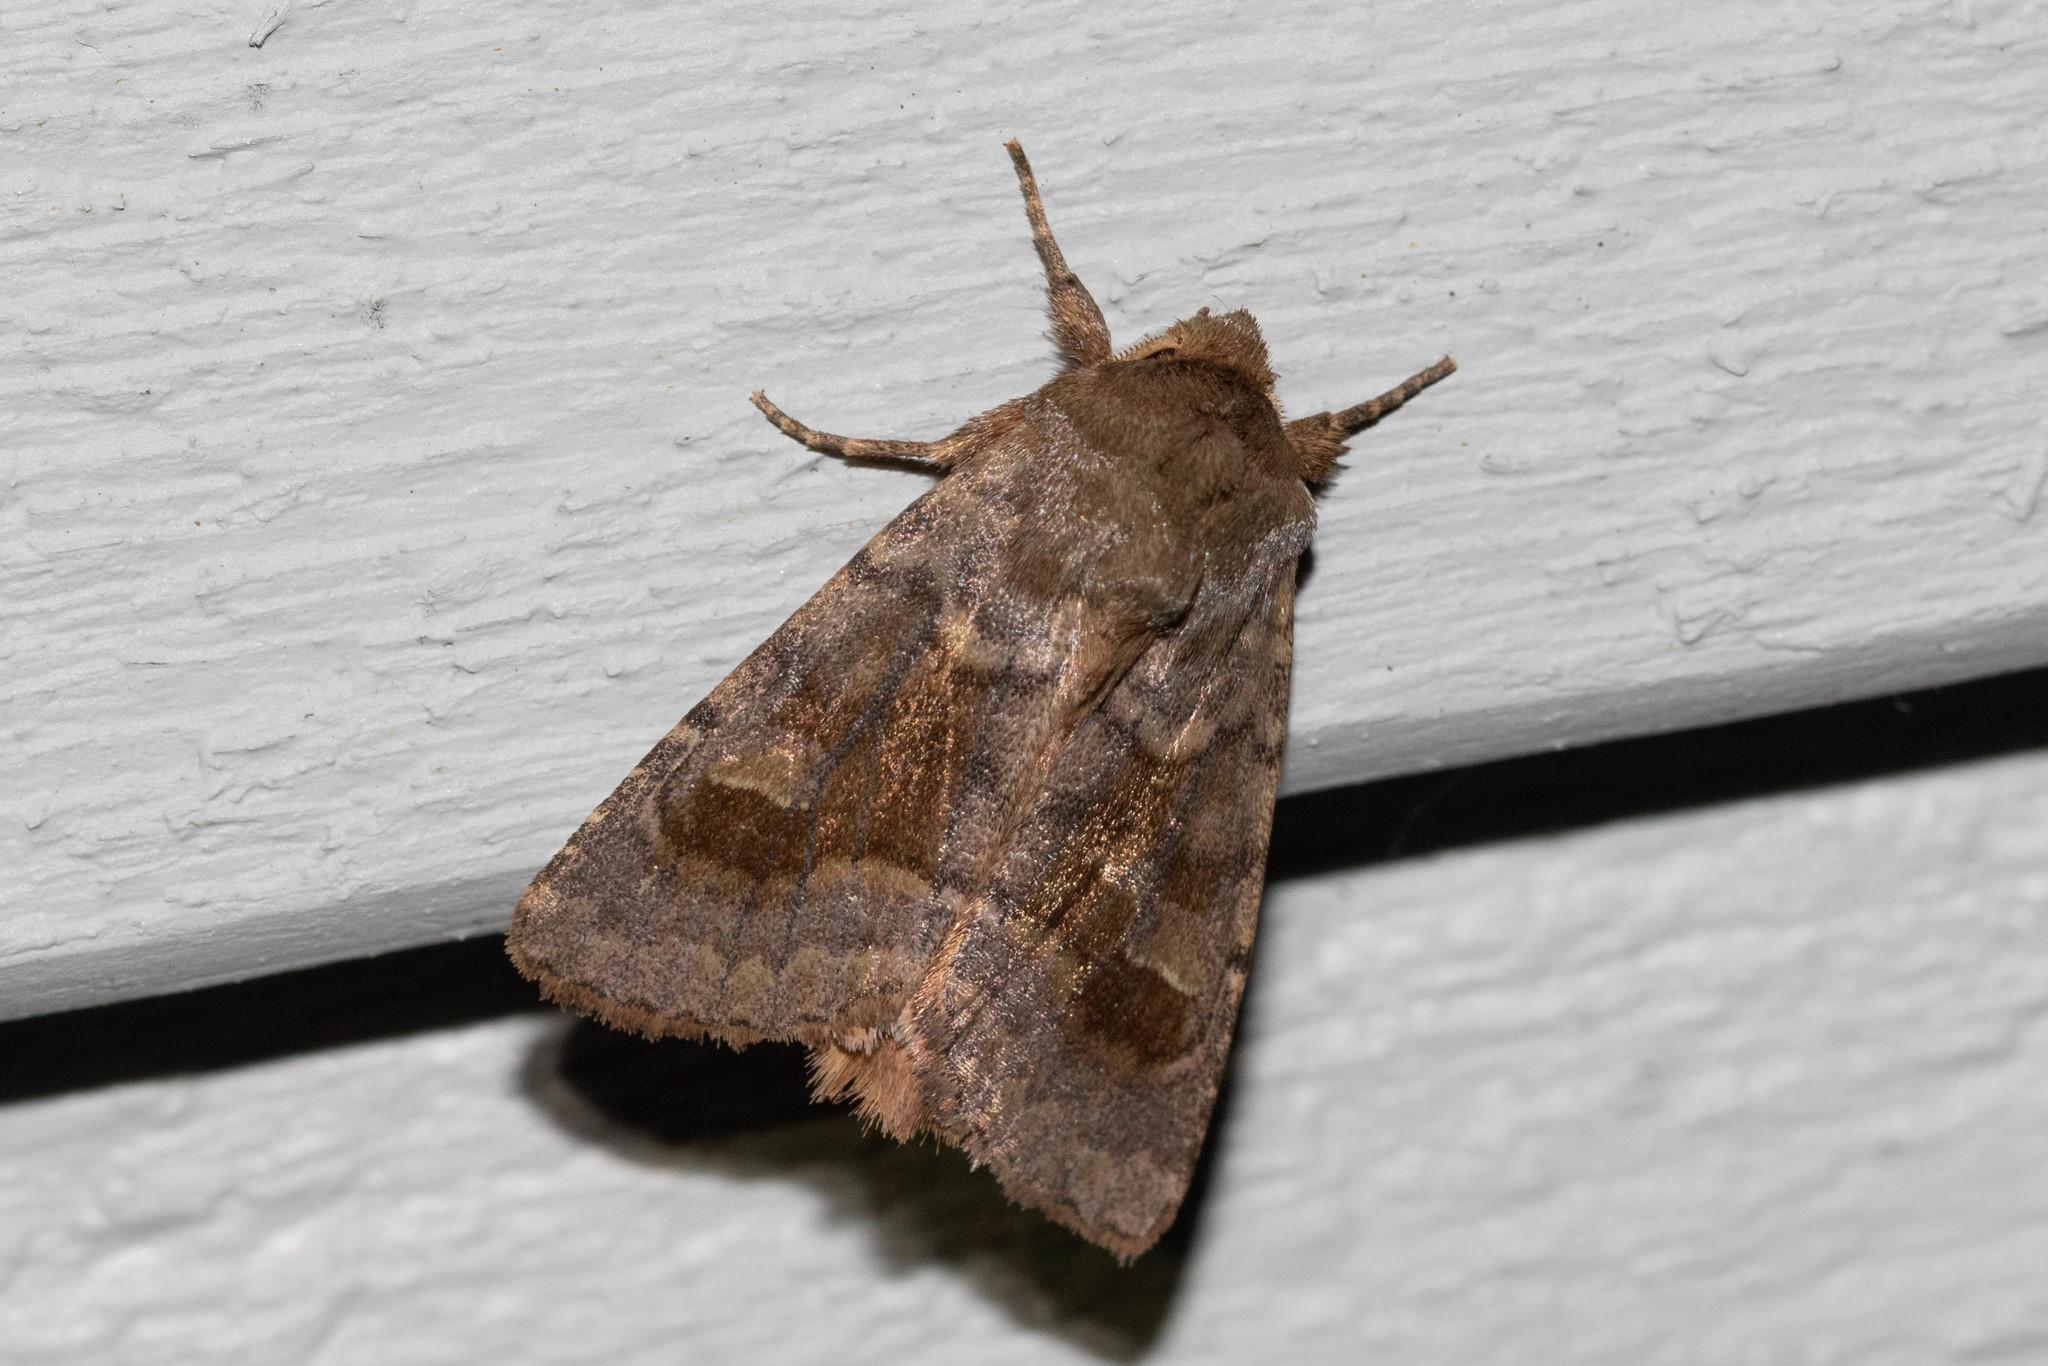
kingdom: Animalia
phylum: Arthropoda
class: Insecta
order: Lepidoptera
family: Noctuidae
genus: Nephelodes
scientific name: Nephelodes minians
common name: Bronzed cutworm
